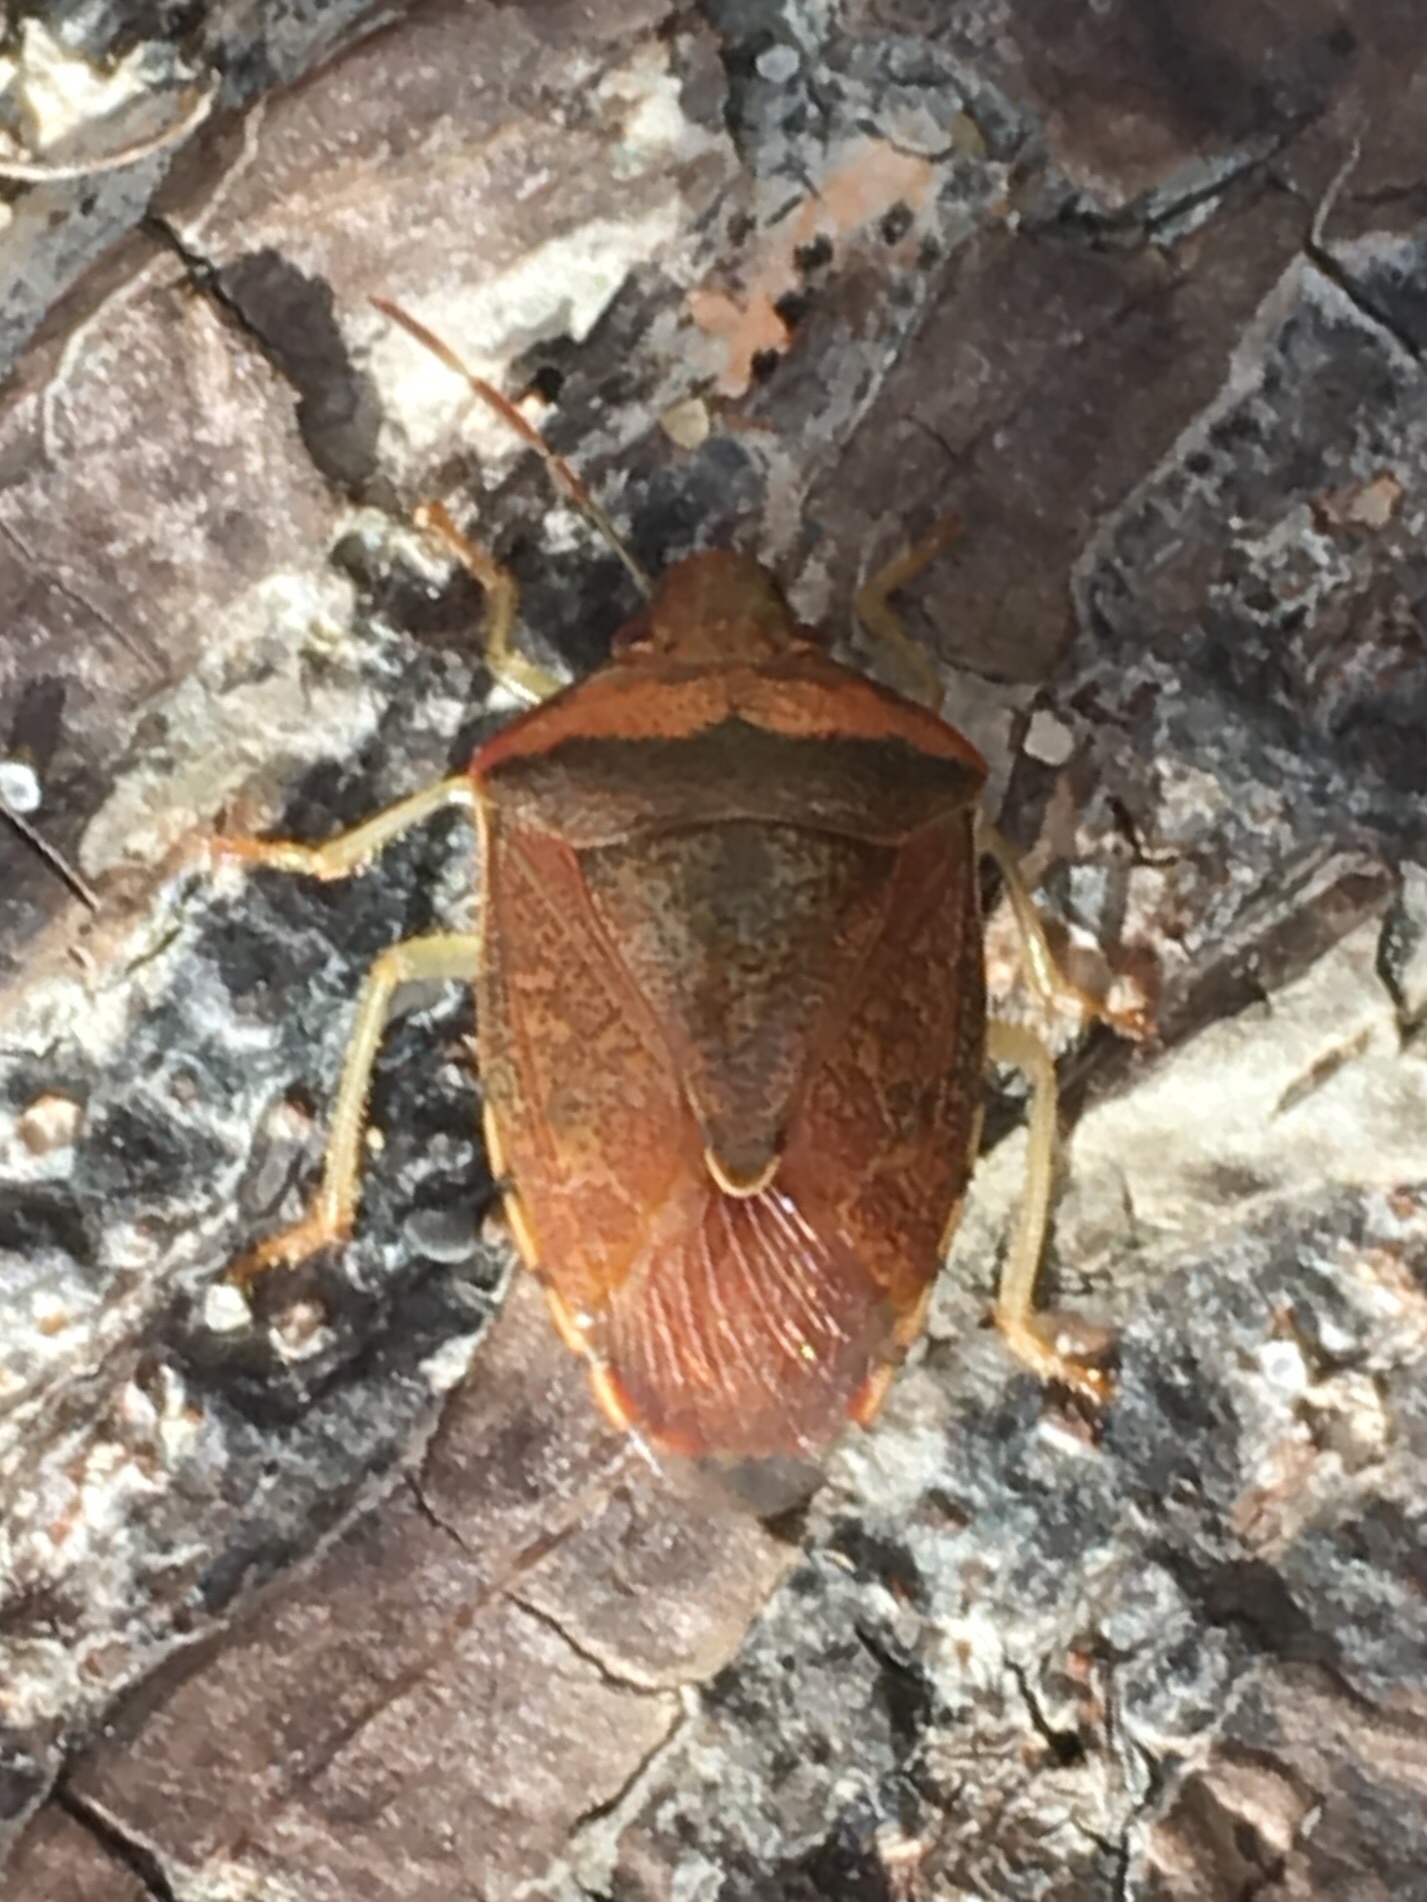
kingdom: Animalia
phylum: Arthropoda
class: Insecta
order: Hemiptera
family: Pentatomidae
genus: Banasa
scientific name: Banasa calva
